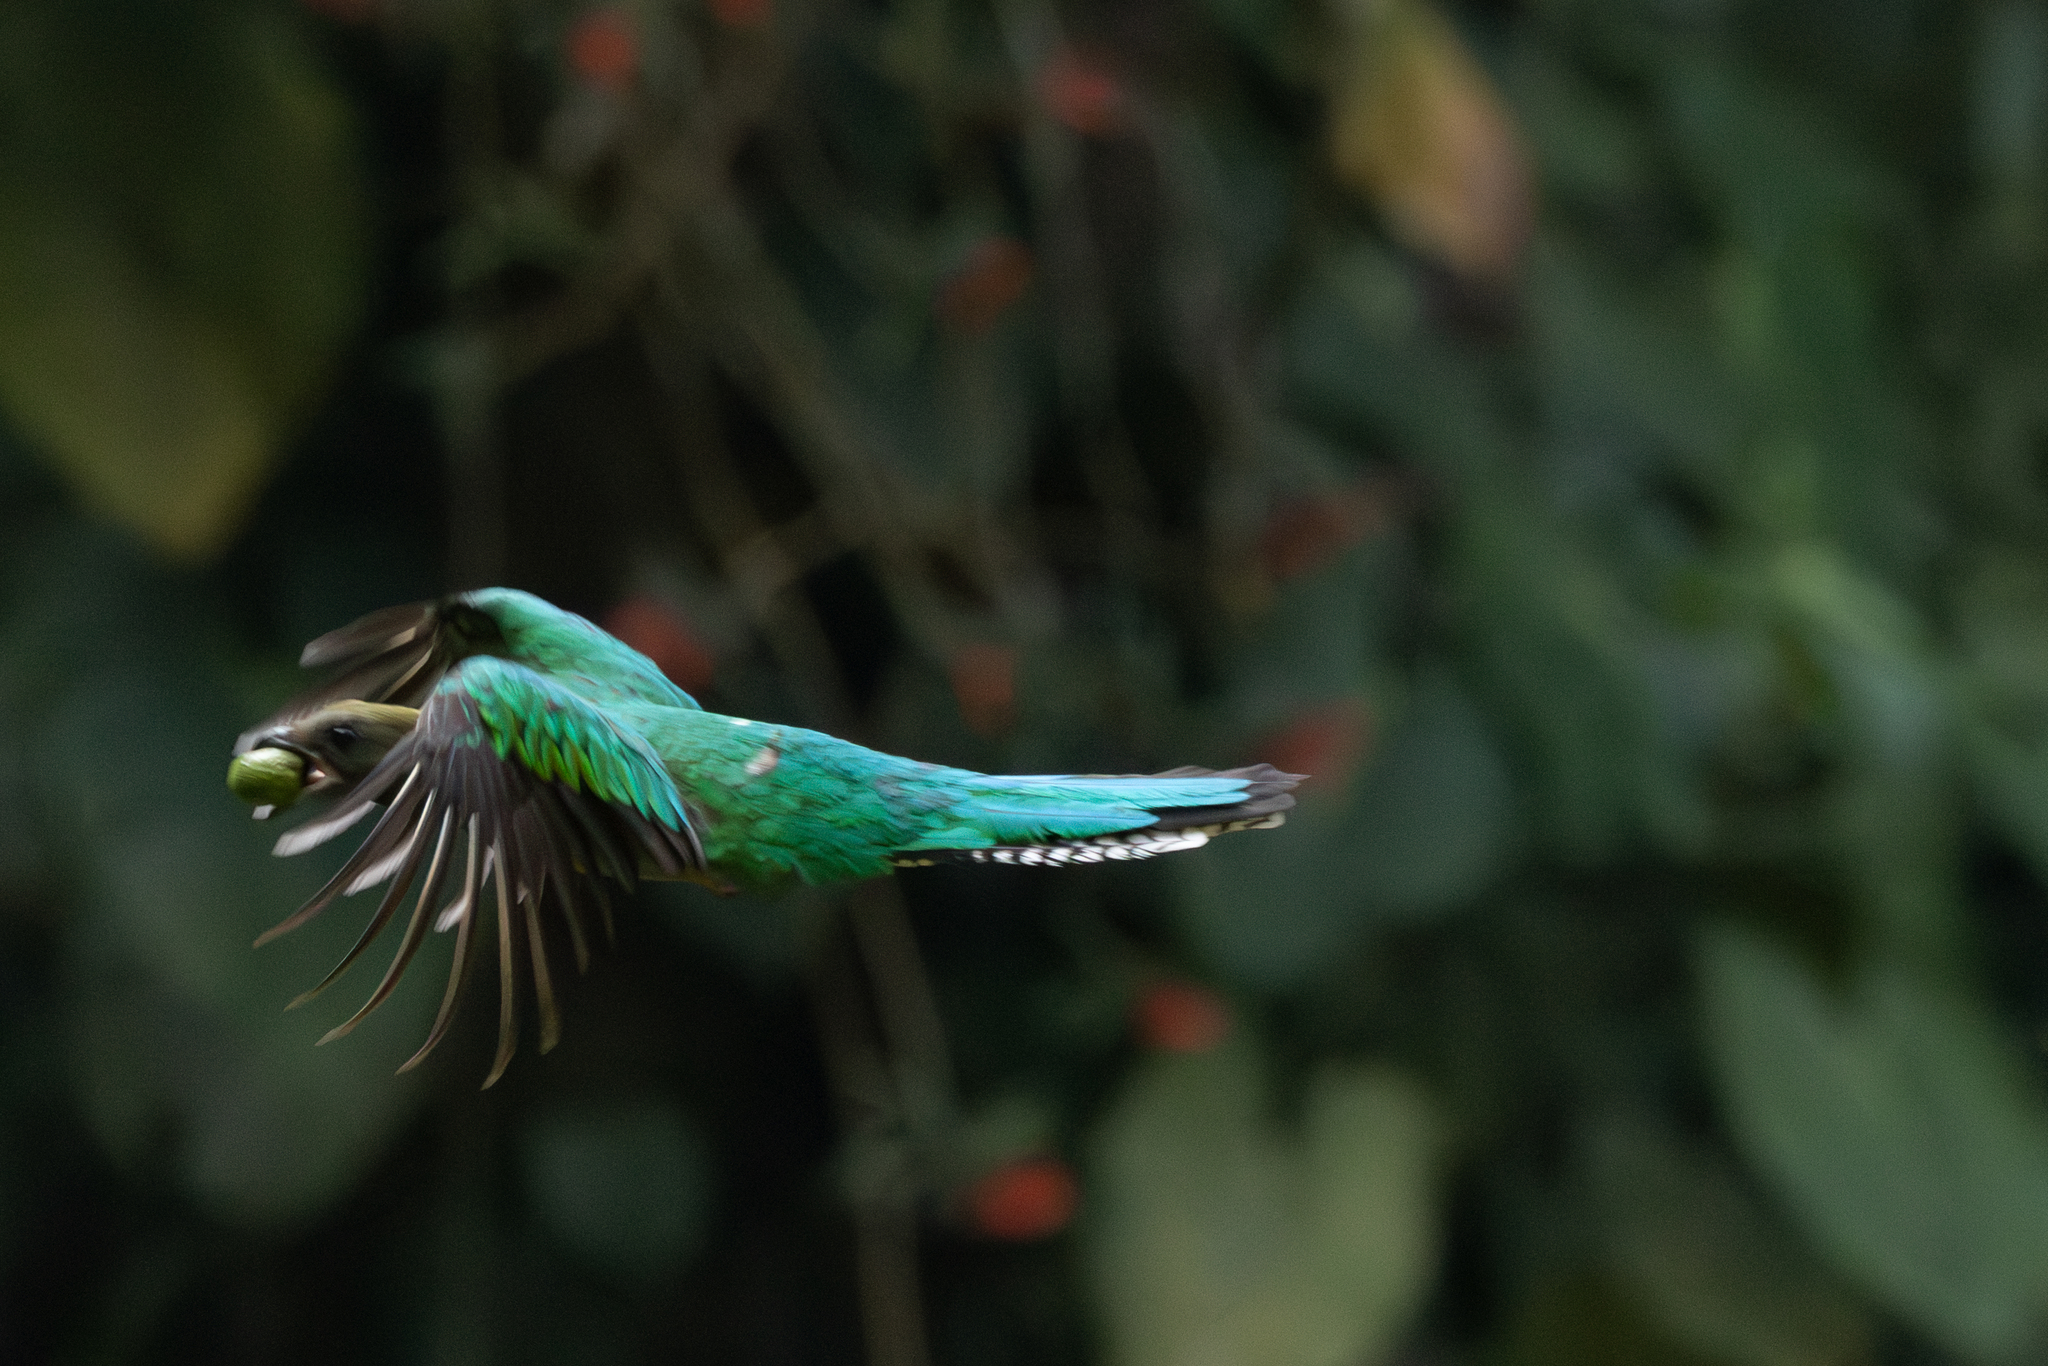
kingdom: Animalia
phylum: Chordata
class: Aves
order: Trogoniformes
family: Trogonidae
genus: Pharomachrus
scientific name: Pharomachrus mocinno
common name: Resplendent quetzal
